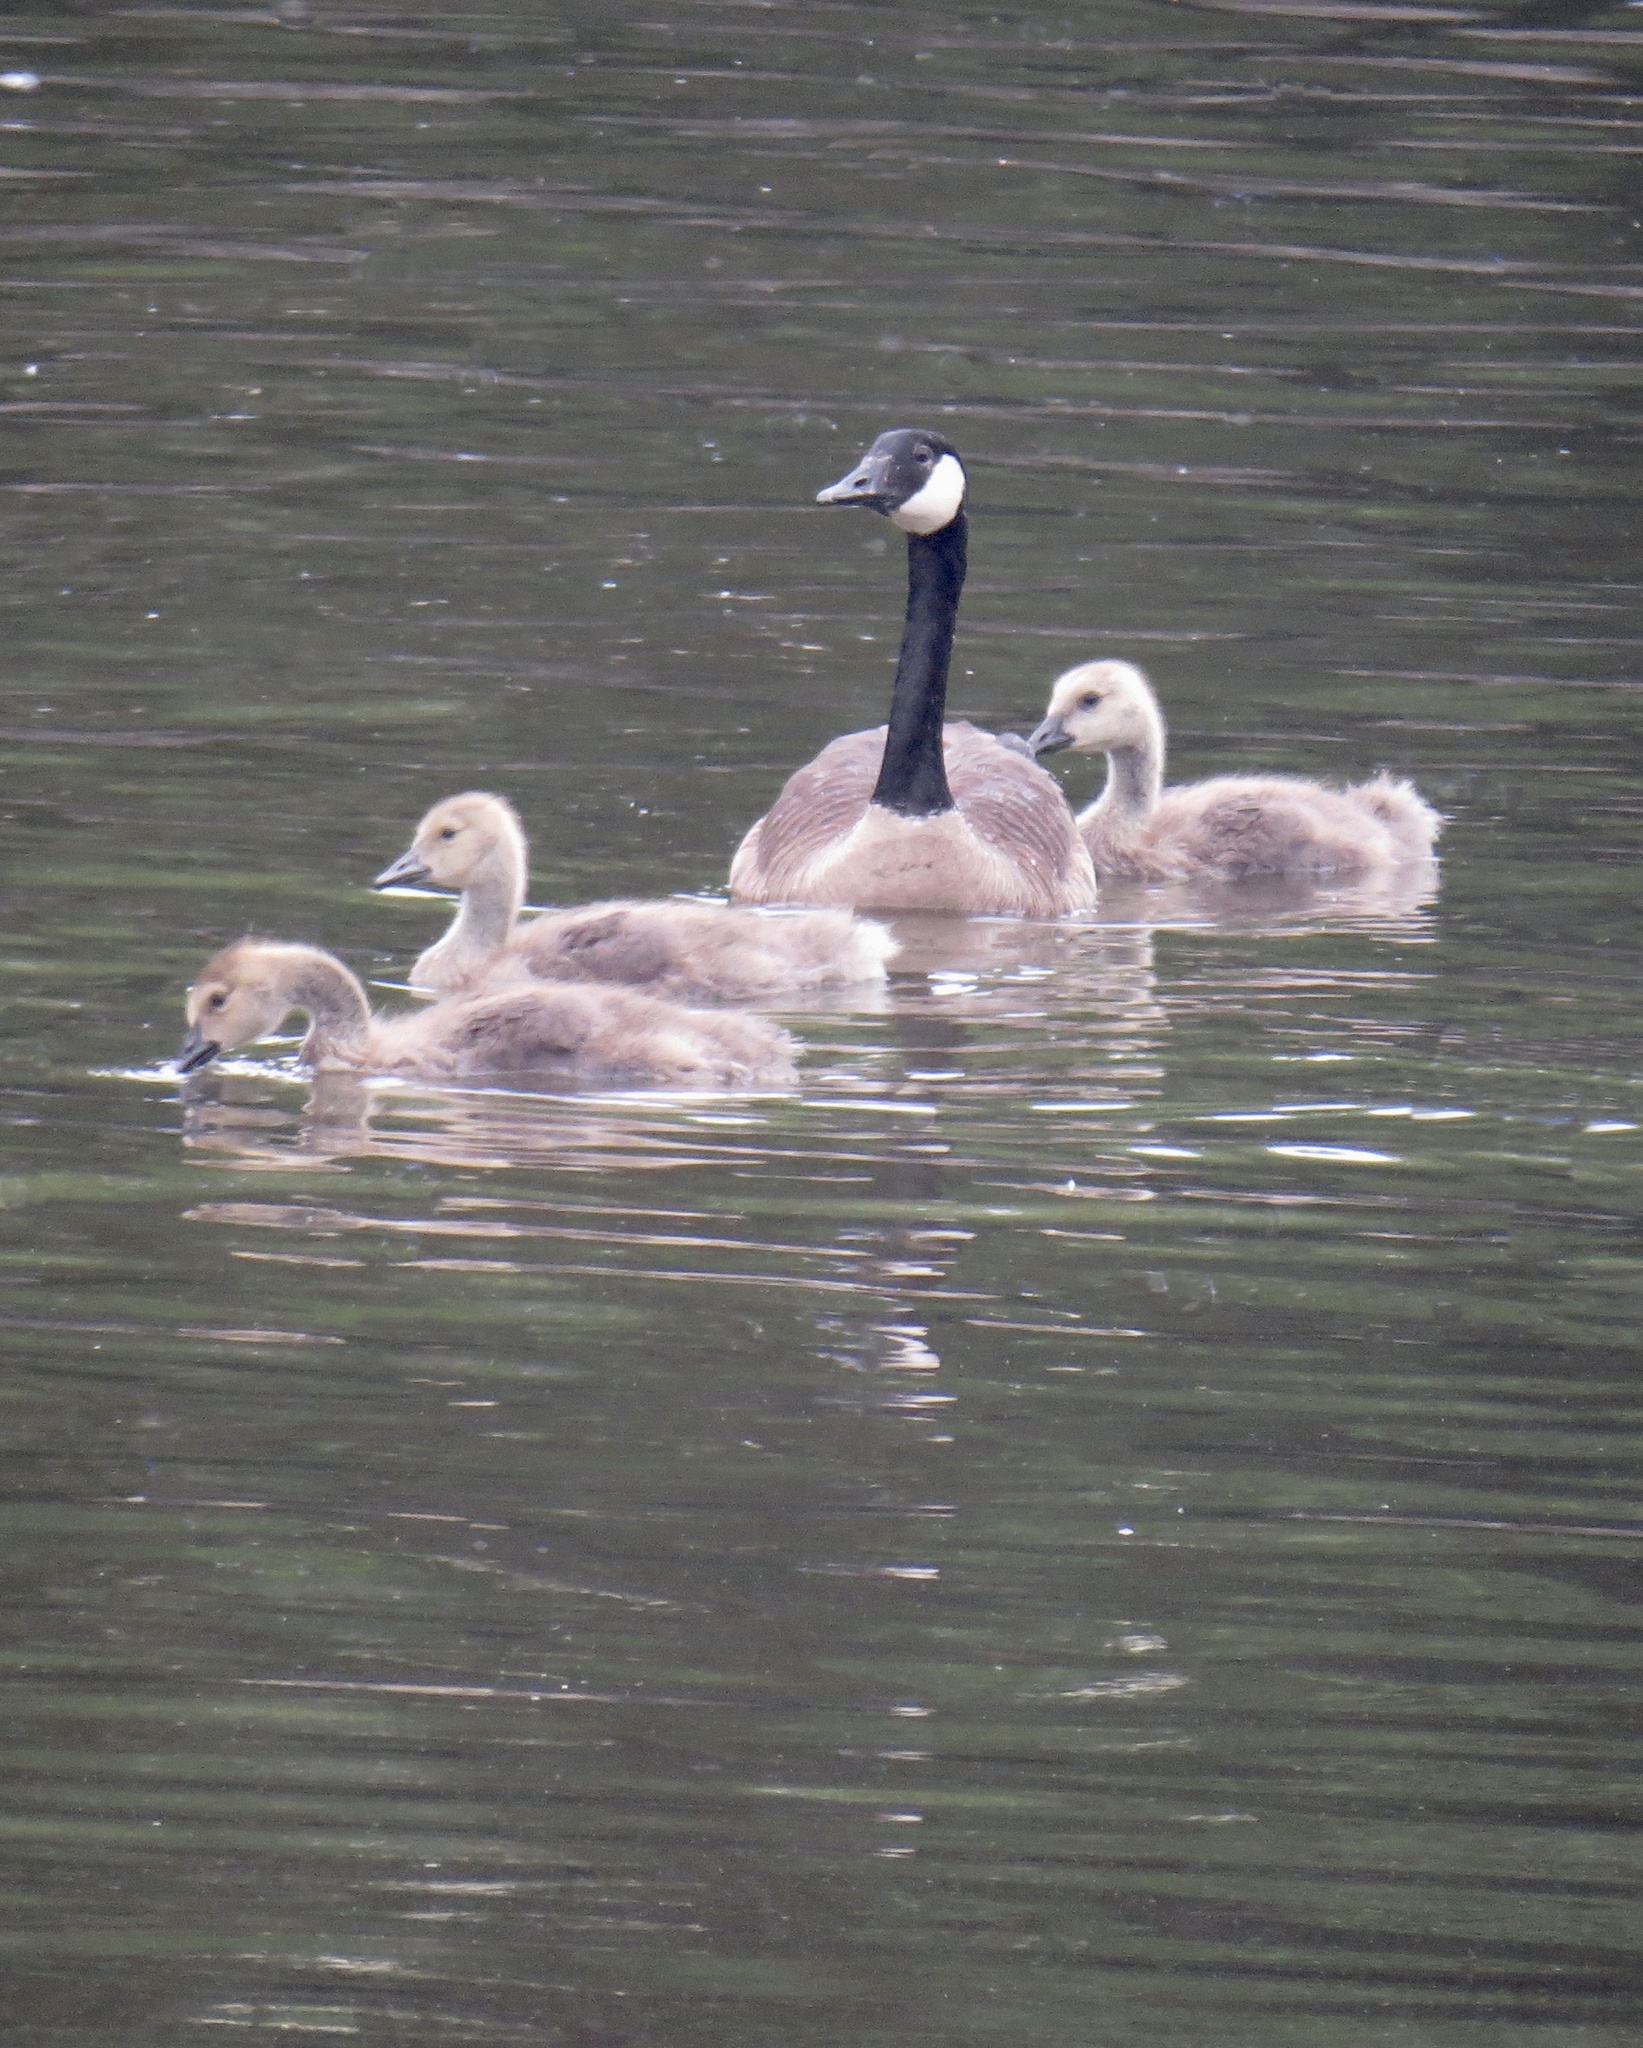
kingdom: Animalia
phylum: Chordata
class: Aves
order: Anseriformes
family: Anatidae
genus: Branta
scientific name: Branta canadensis
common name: Canada goose
